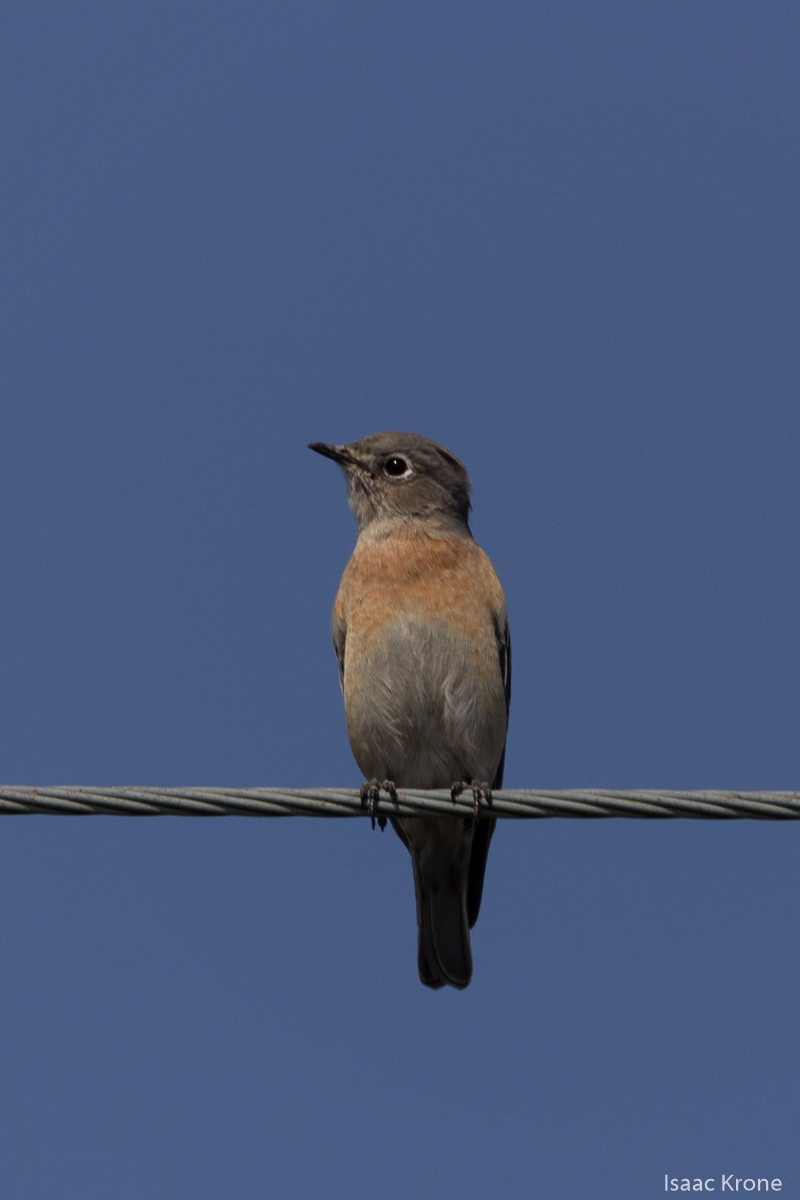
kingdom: Animalia
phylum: Chordata
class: Aves
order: Passeriformes
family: Turdidae
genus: Sialia
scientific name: Sialia mexicana
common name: Western bluebird
